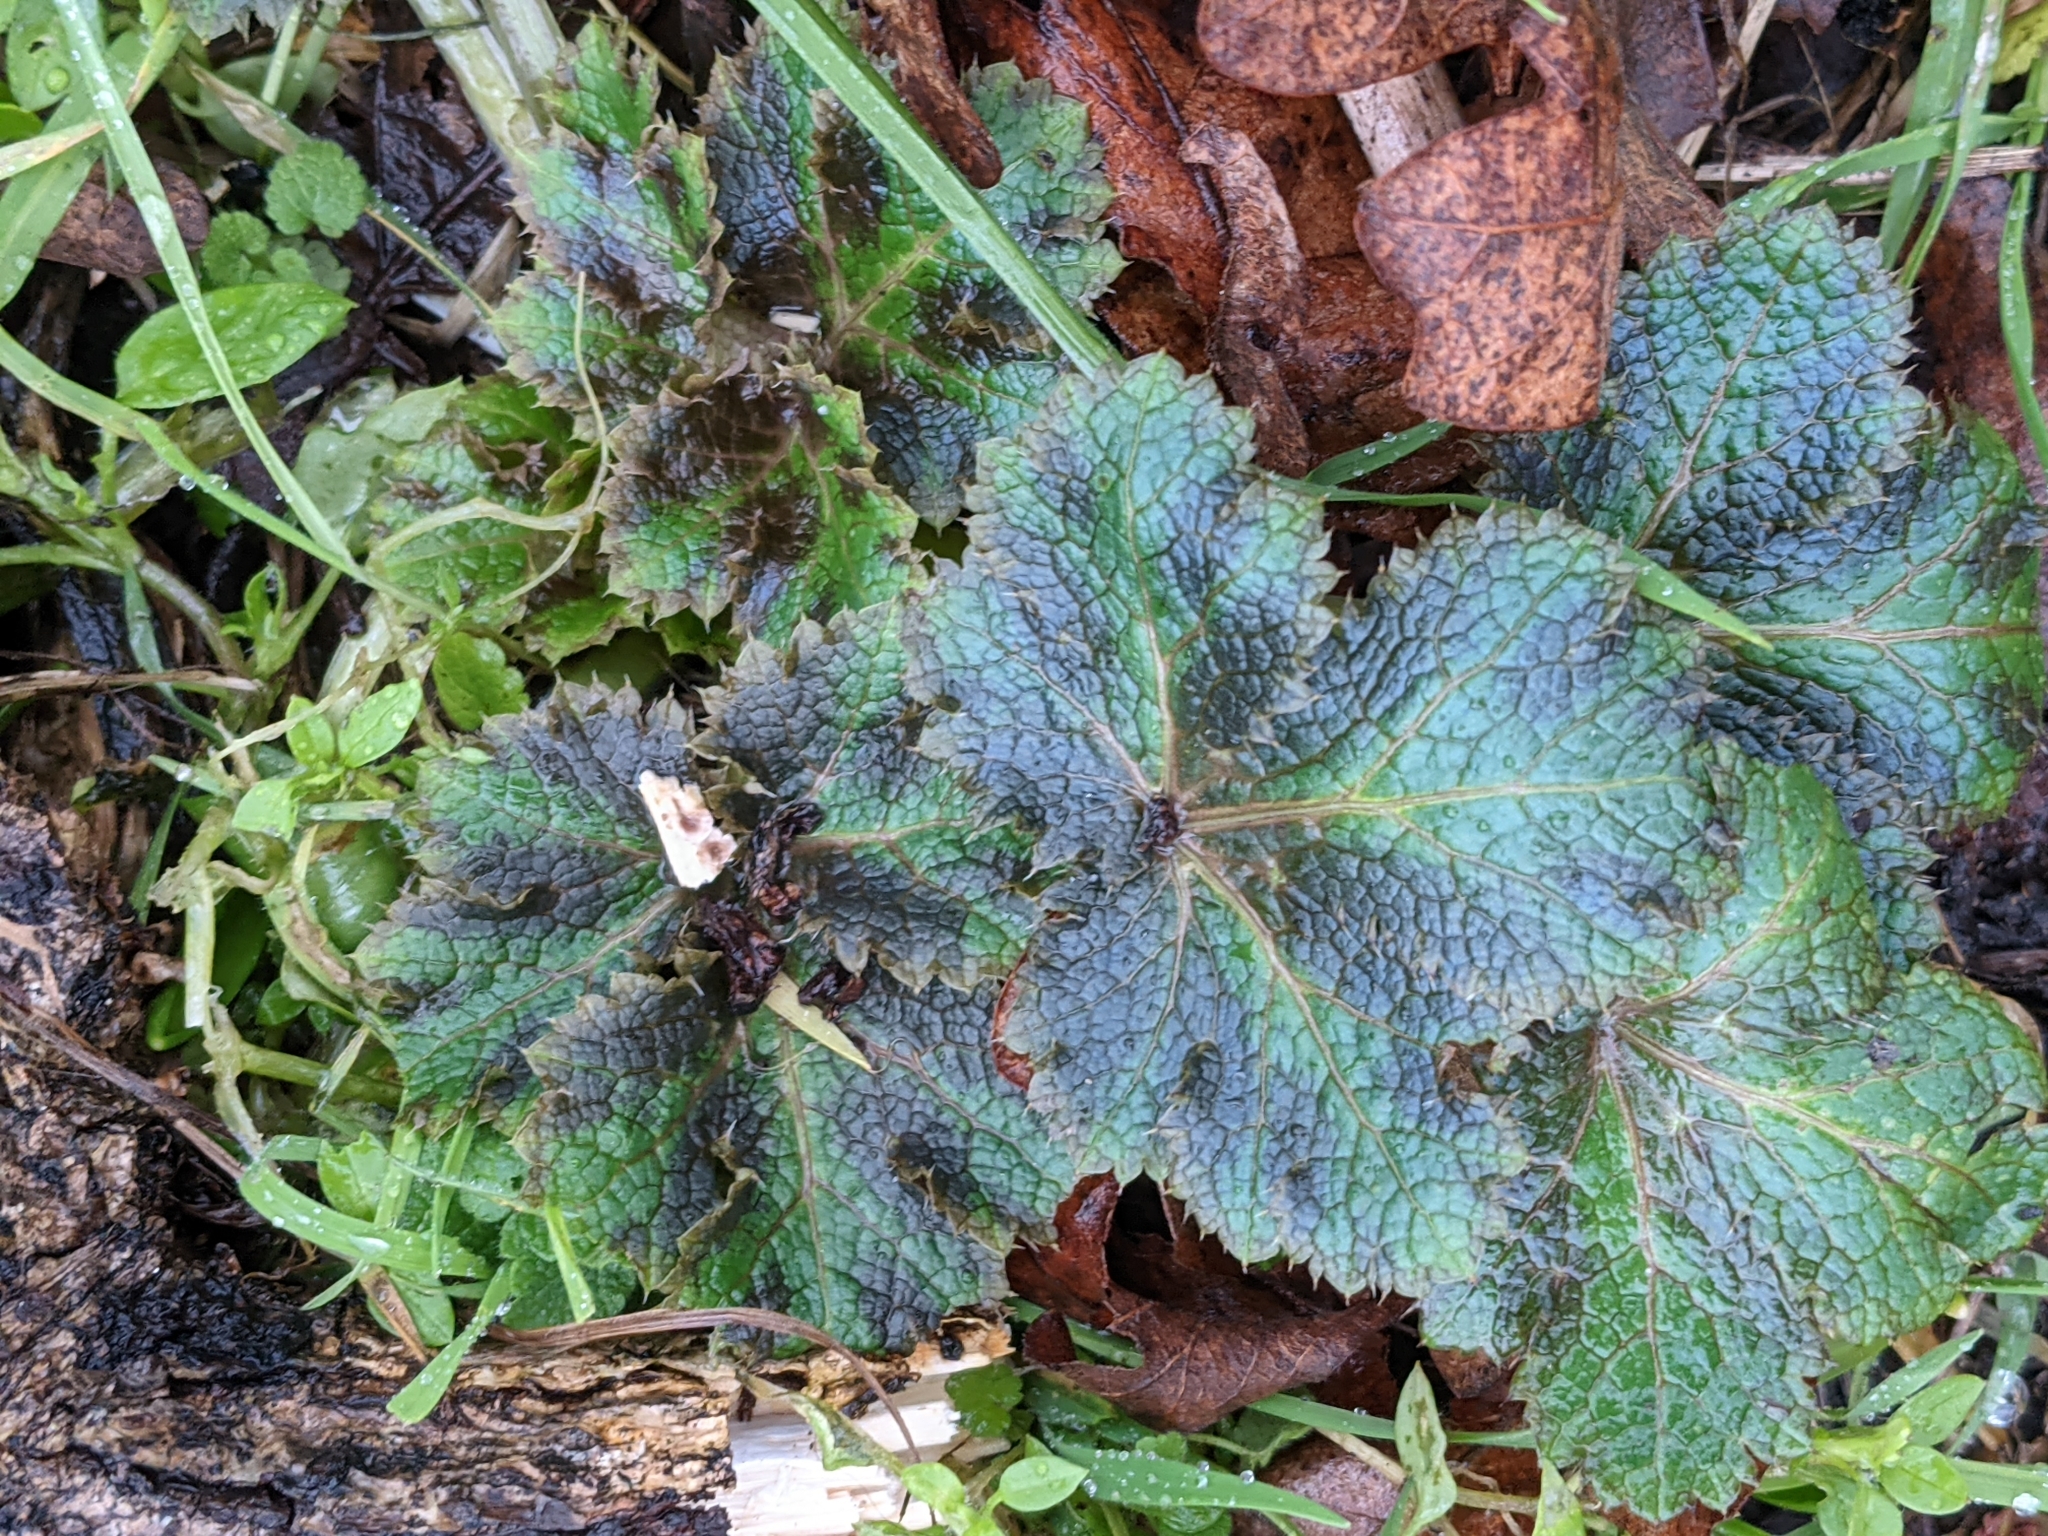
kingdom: Plantae
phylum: Tracheophyta
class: Magnoliopsida
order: Apiales
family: Apiaceae
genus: Sanicula
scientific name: Sanicula crassicaulis
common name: Western snakeroot
